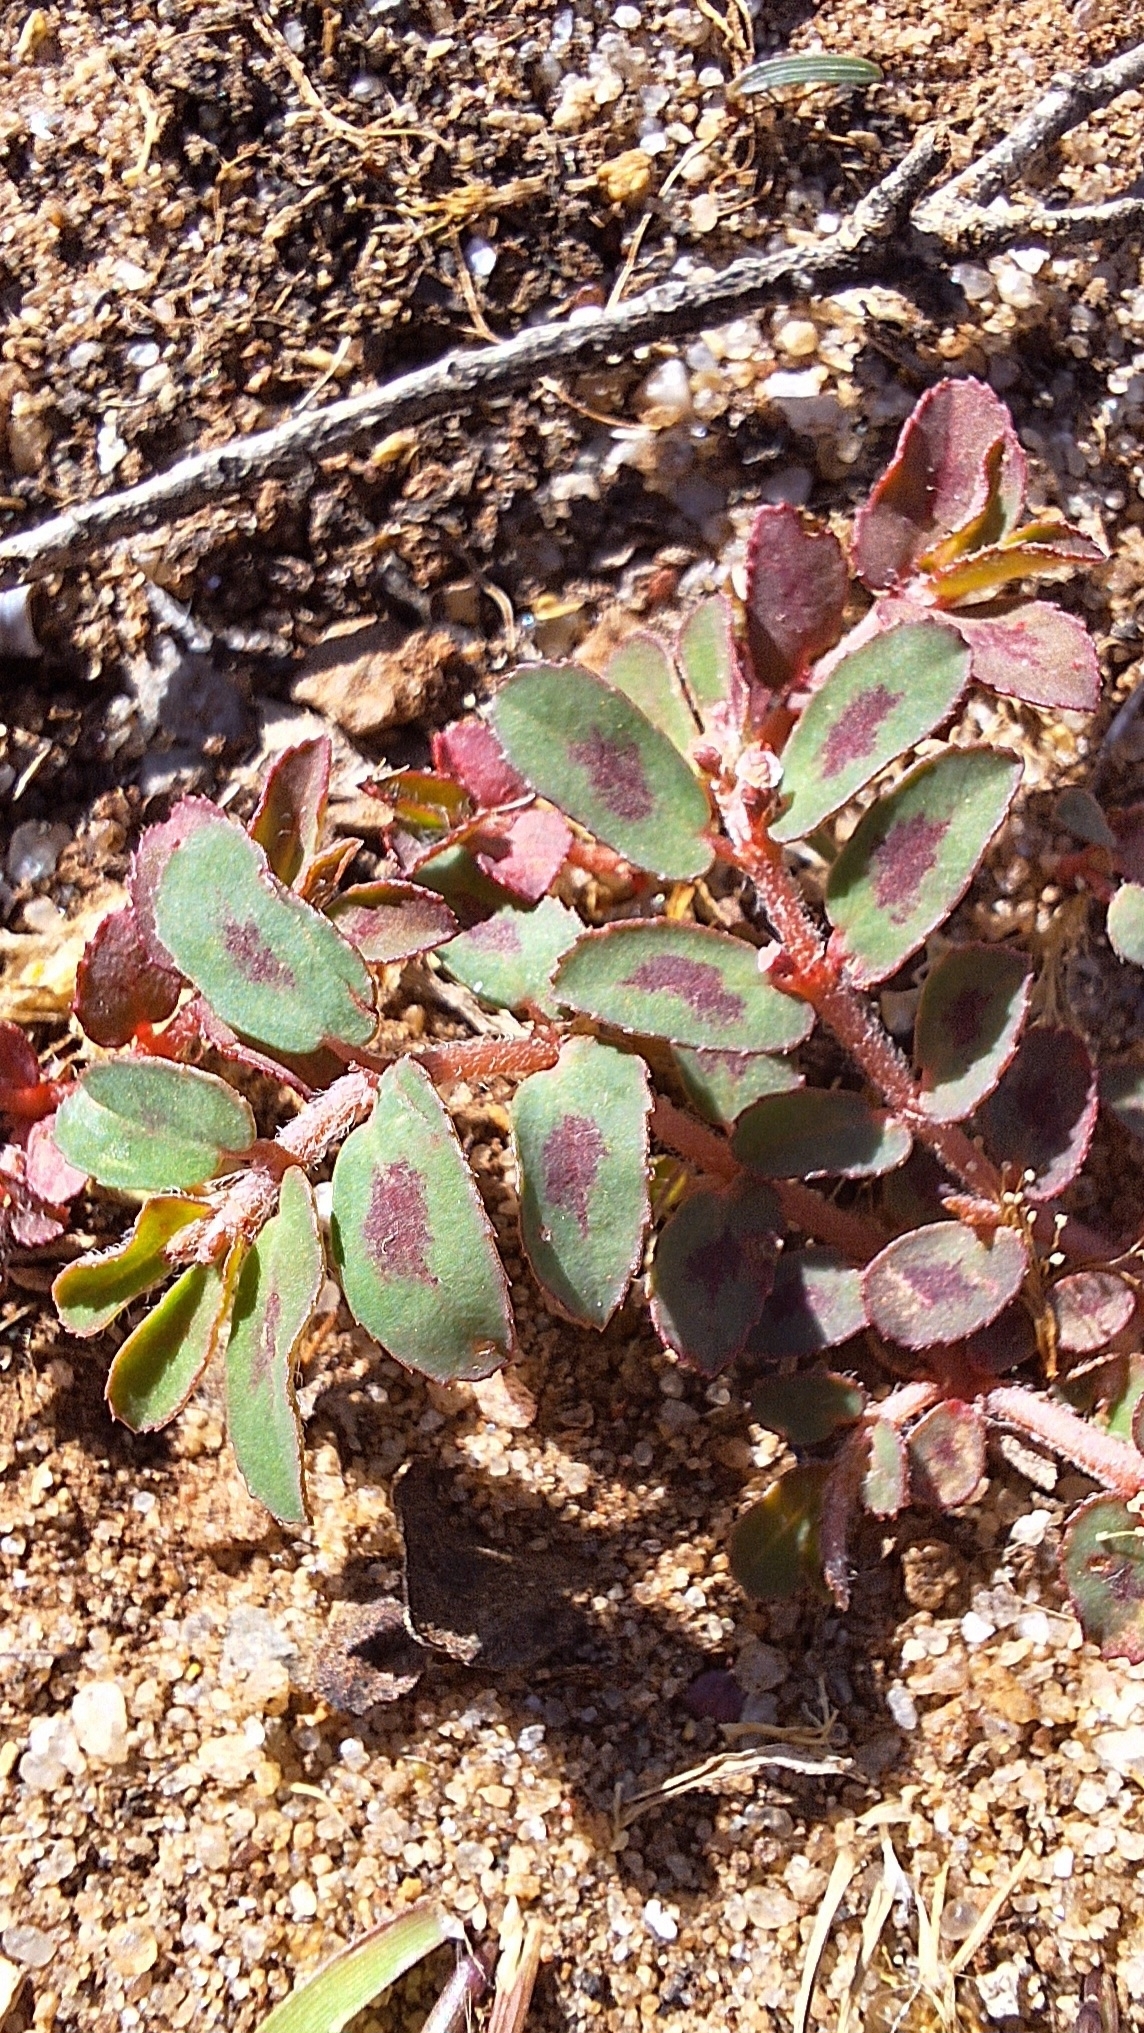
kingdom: Plantae
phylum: Tracheophyta
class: Magnoliopsida
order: Malpighiales
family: Euphorbiaceae
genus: Euphorbia
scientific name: Euphorbia maculata
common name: Spotted spurge
